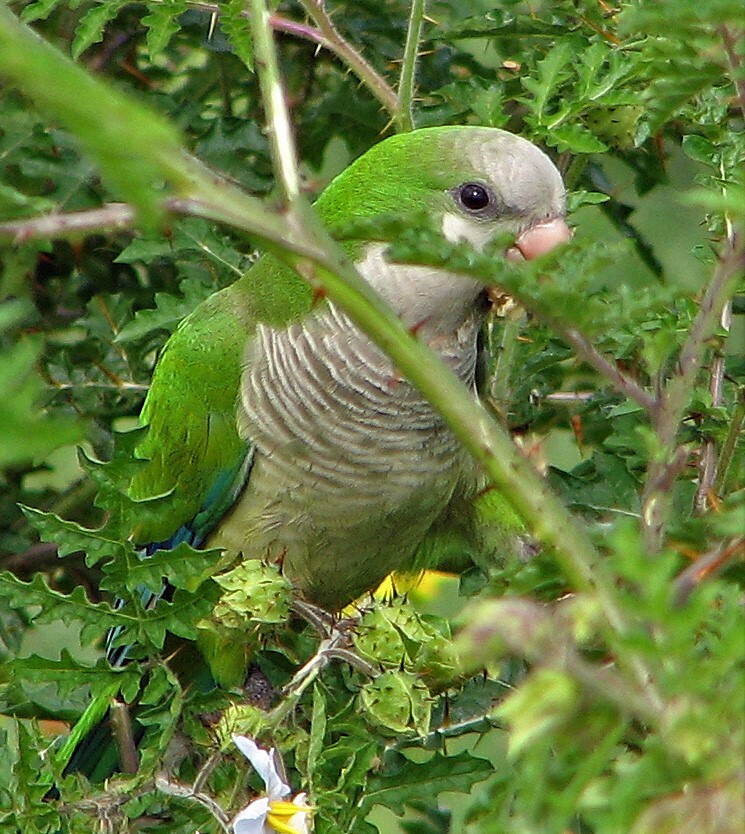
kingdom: Animalia
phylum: Chordata
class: Aves
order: Psittaciformes
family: Psittacidae
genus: Myiopsitta
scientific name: Myiopsitta monachus
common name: Monk parakeet
